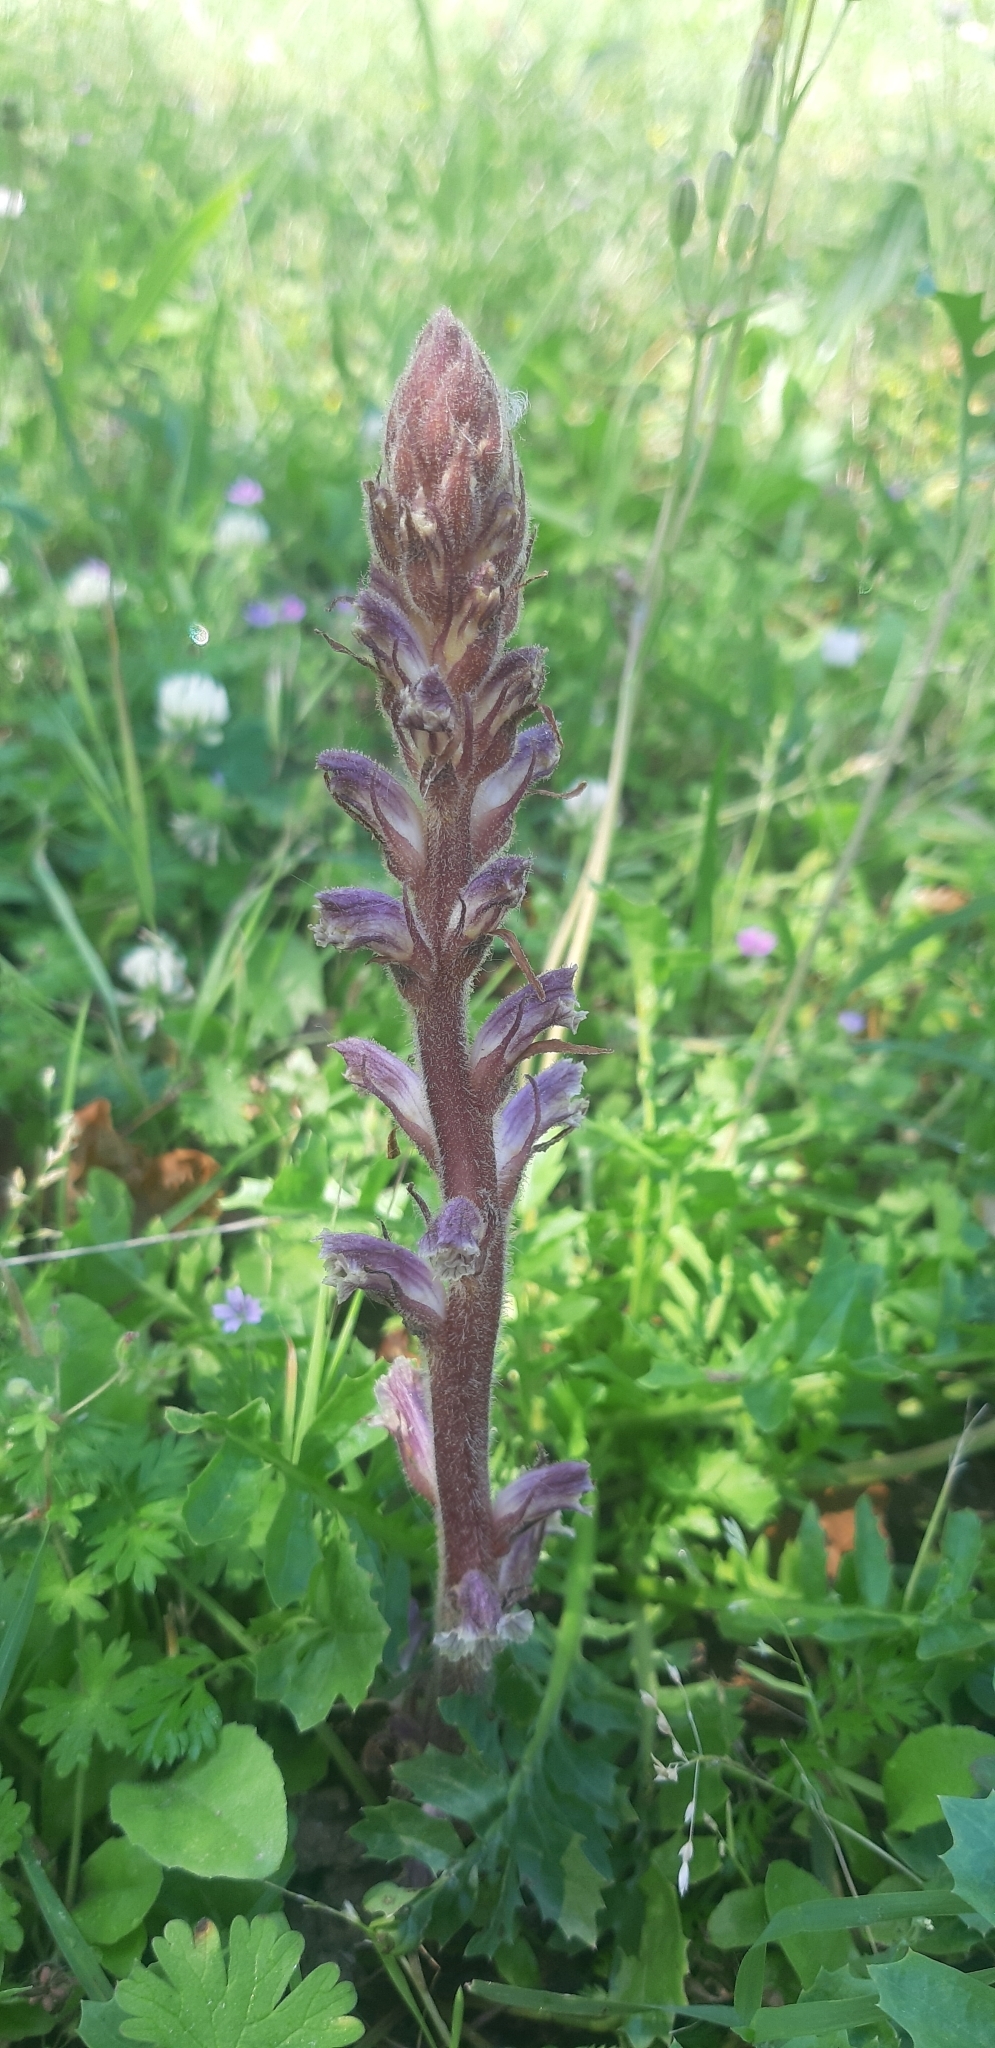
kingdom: Plantae
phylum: Tracheophyta
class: Magnoliopsida
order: Lamiales
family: Orobanchaceae
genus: Orobanche
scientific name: Orobanche minor
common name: Common broomrape
